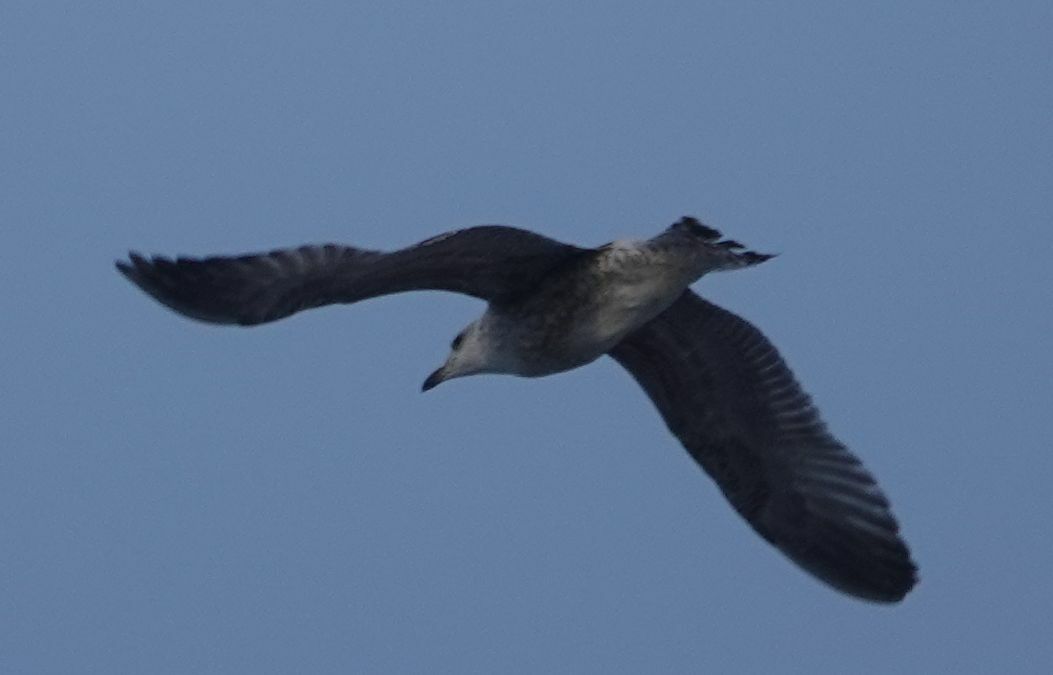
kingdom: Animalia
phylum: Chordata
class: Aves
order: Charadriiformes
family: Laridae
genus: Larus
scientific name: Larus argentatus
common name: Herring gull
